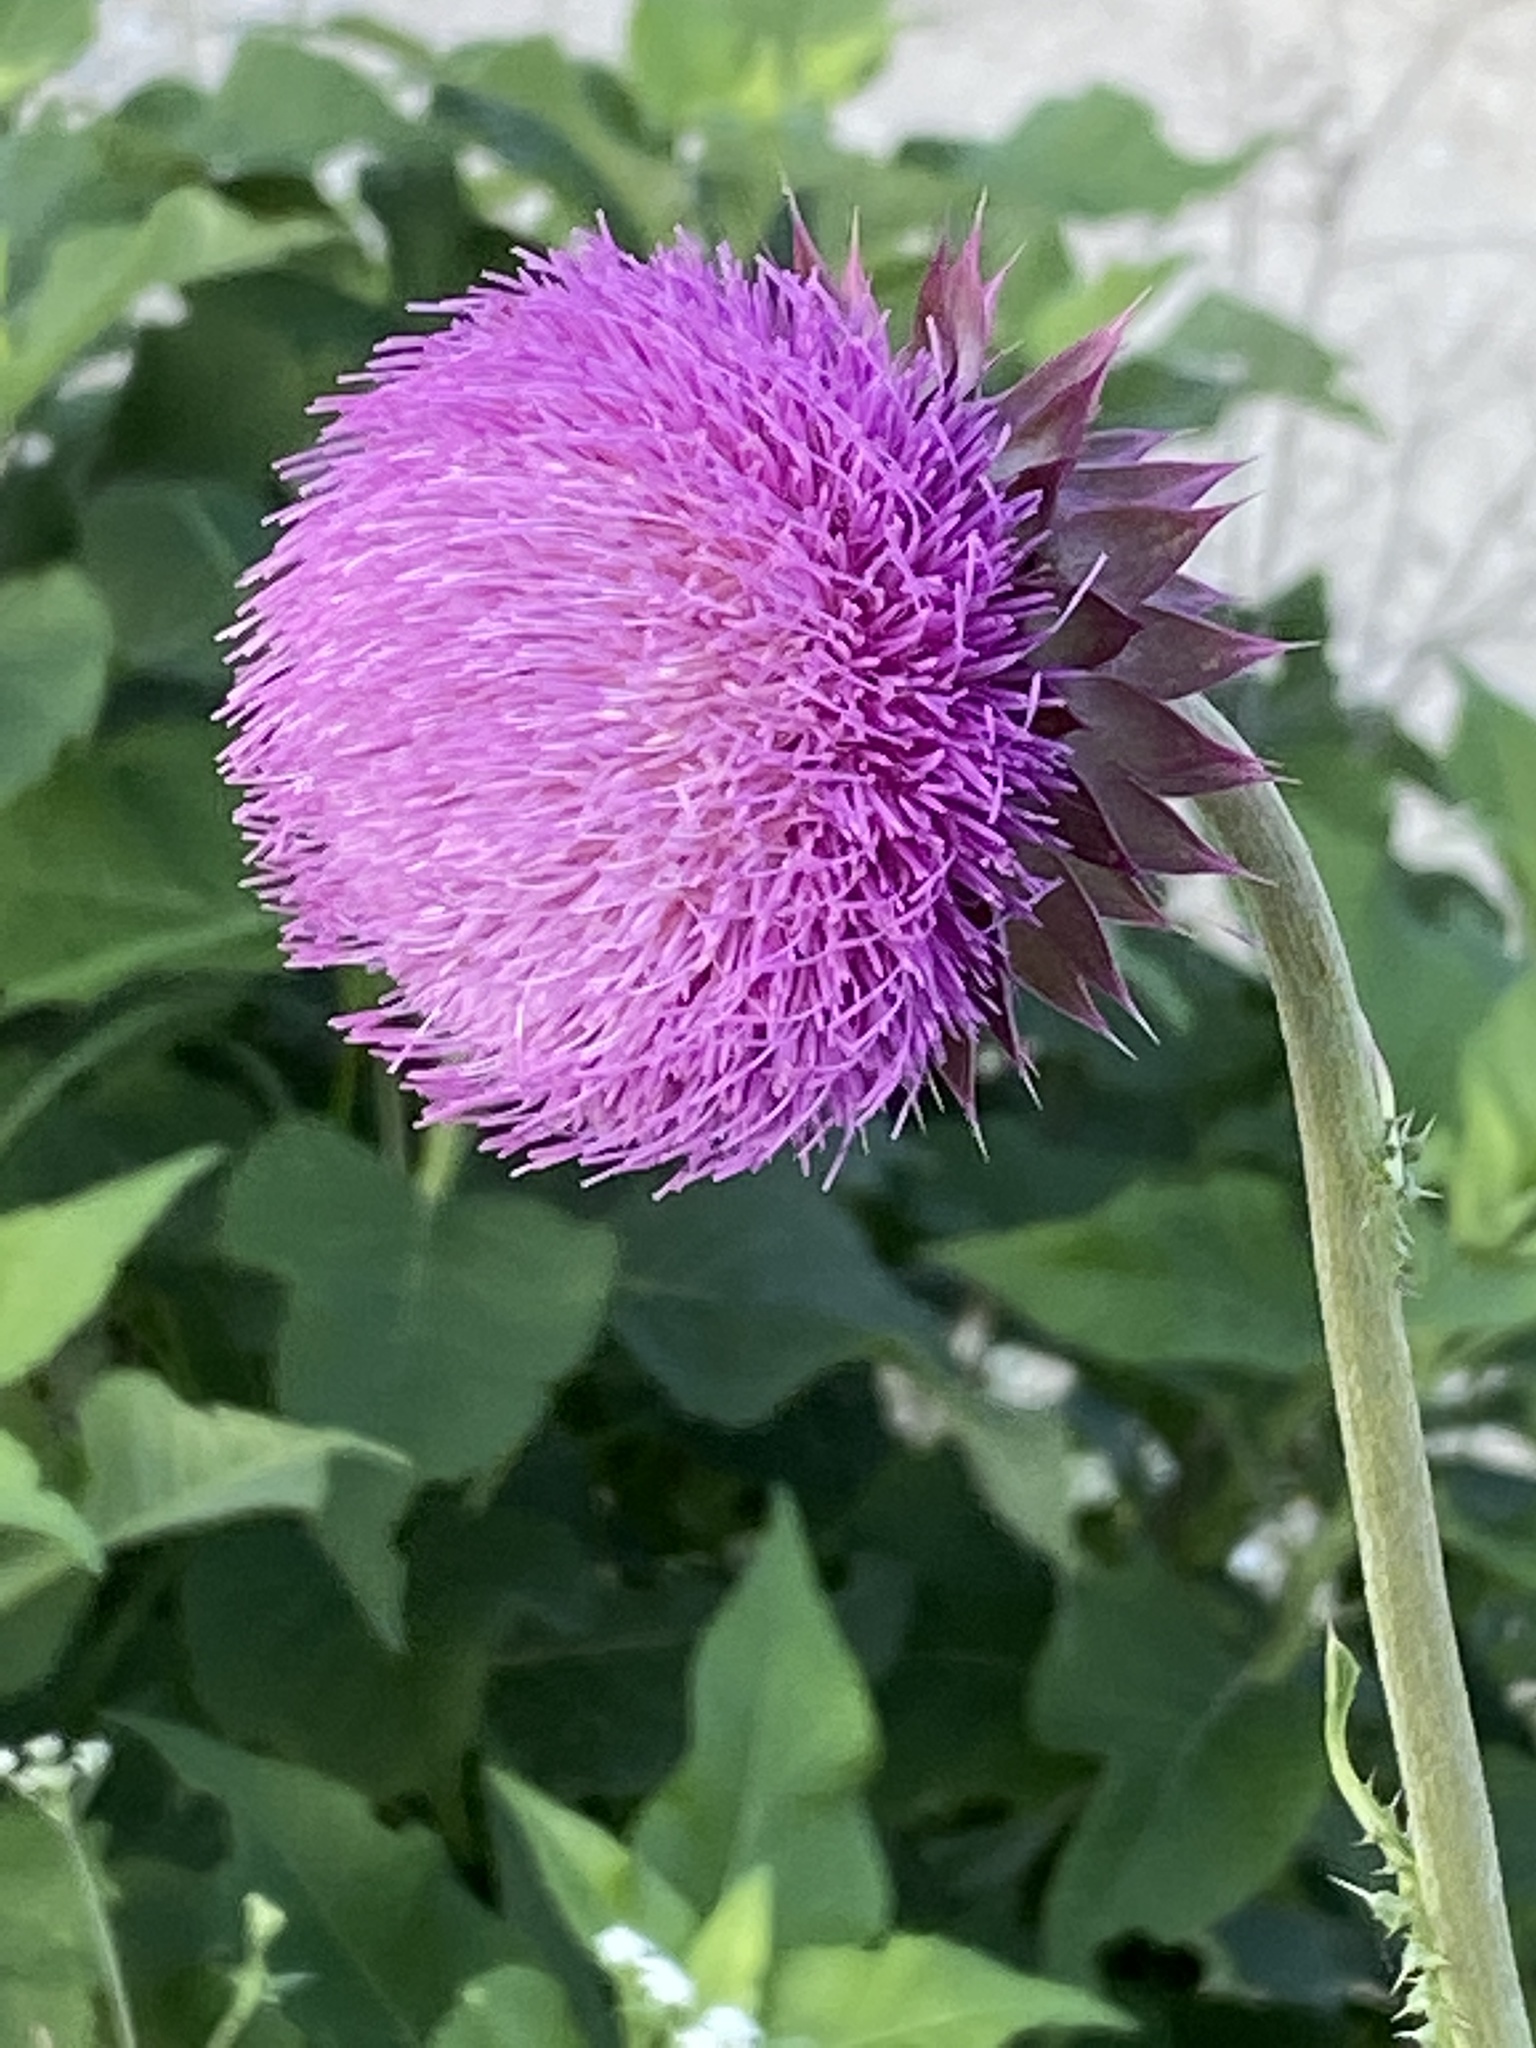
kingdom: Plantae
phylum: Tracheophyta
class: Magnoliopsida
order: Asterales
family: Asteraceae
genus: Carduus
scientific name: Carduus nutans
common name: Musk thistle
